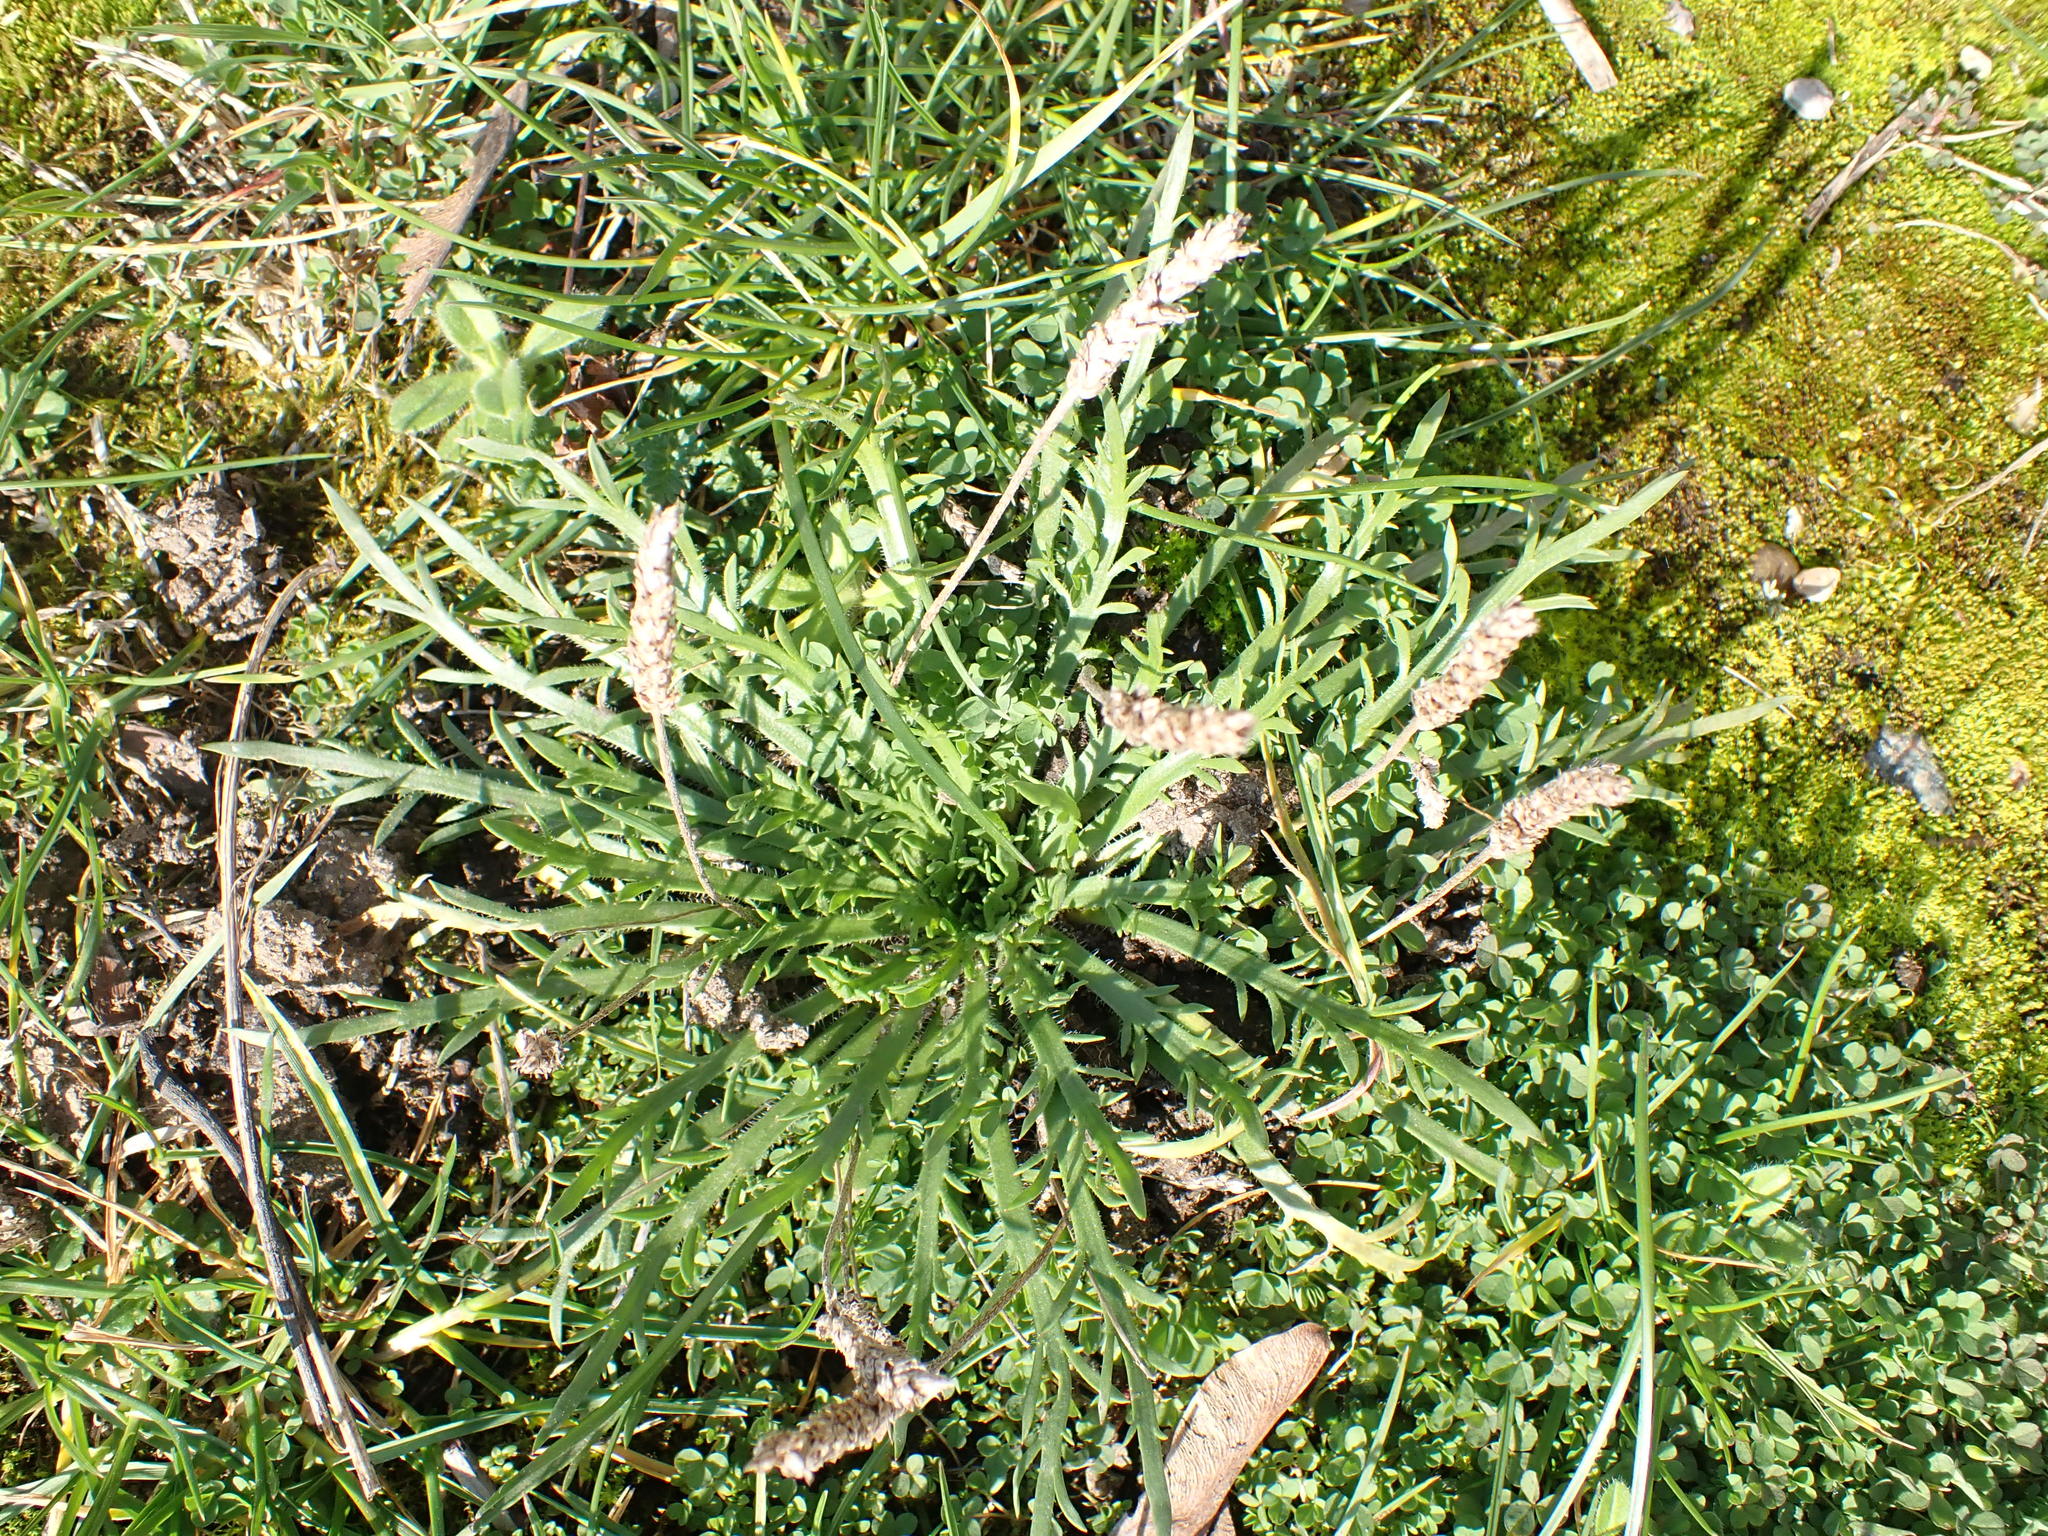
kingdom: Plantae
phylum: Tracheophyta
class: Magnoliopsida
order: Lamiales
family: Plantaginaceae
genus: Plantago
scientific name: Plantago coronopus
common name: Buck's-horn plantain
